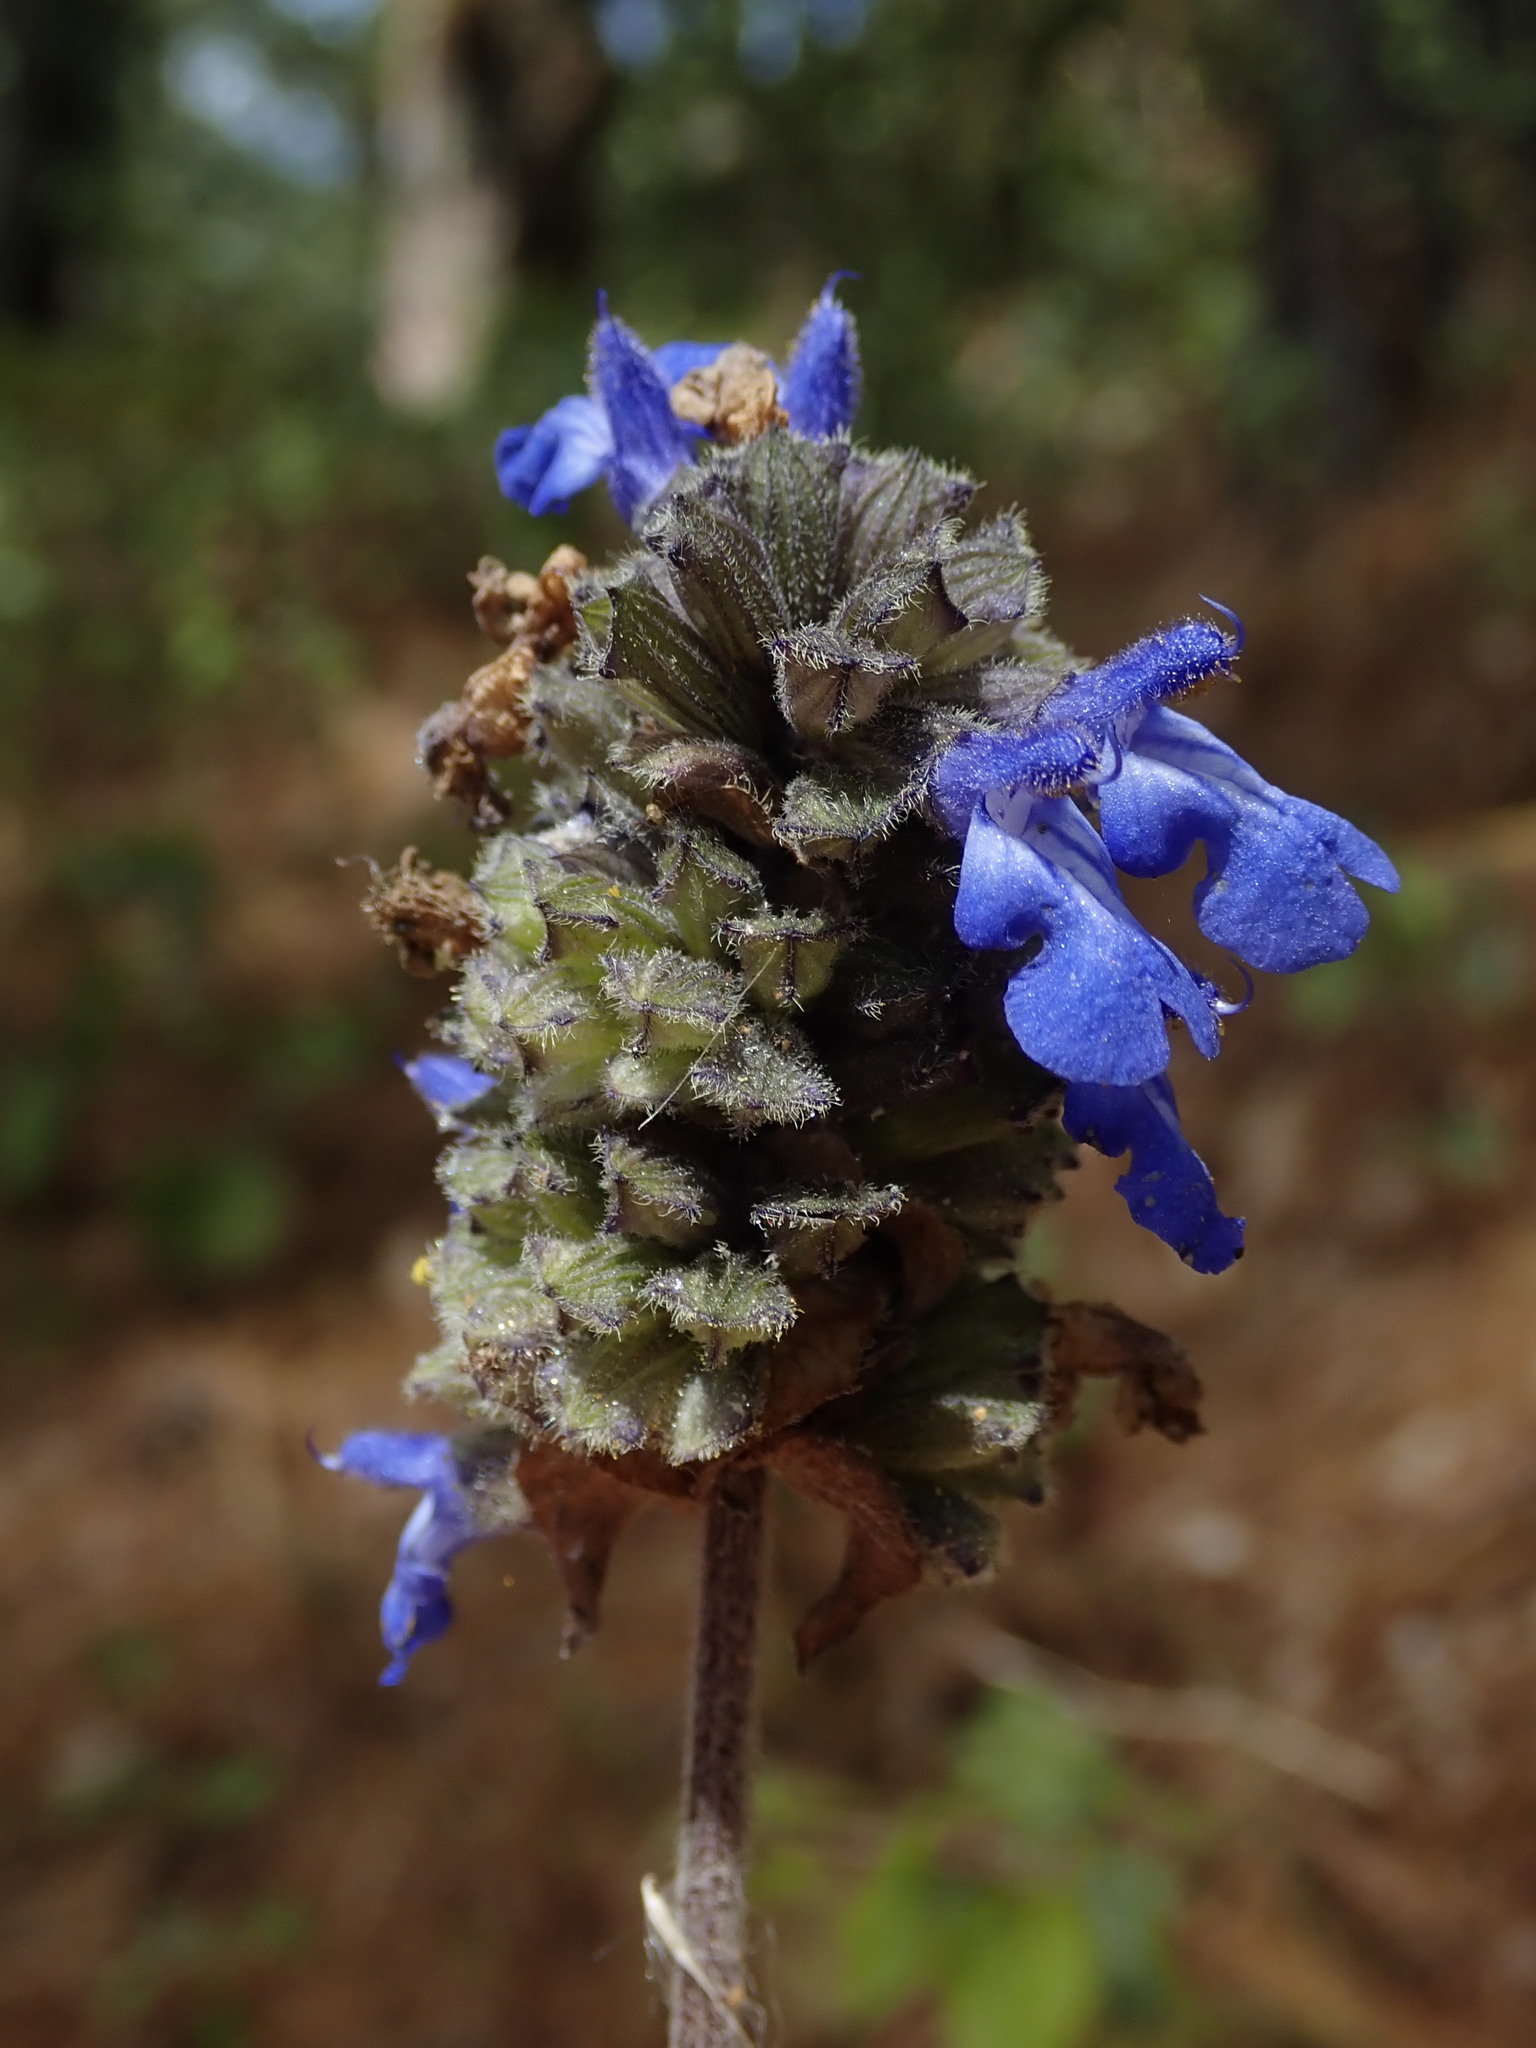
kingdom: Plantae
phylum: Tracheophyta
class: Magnoliopsida
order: Lamiales
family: Lamiaceae
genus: Salvia
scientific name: Salvia polystachia
